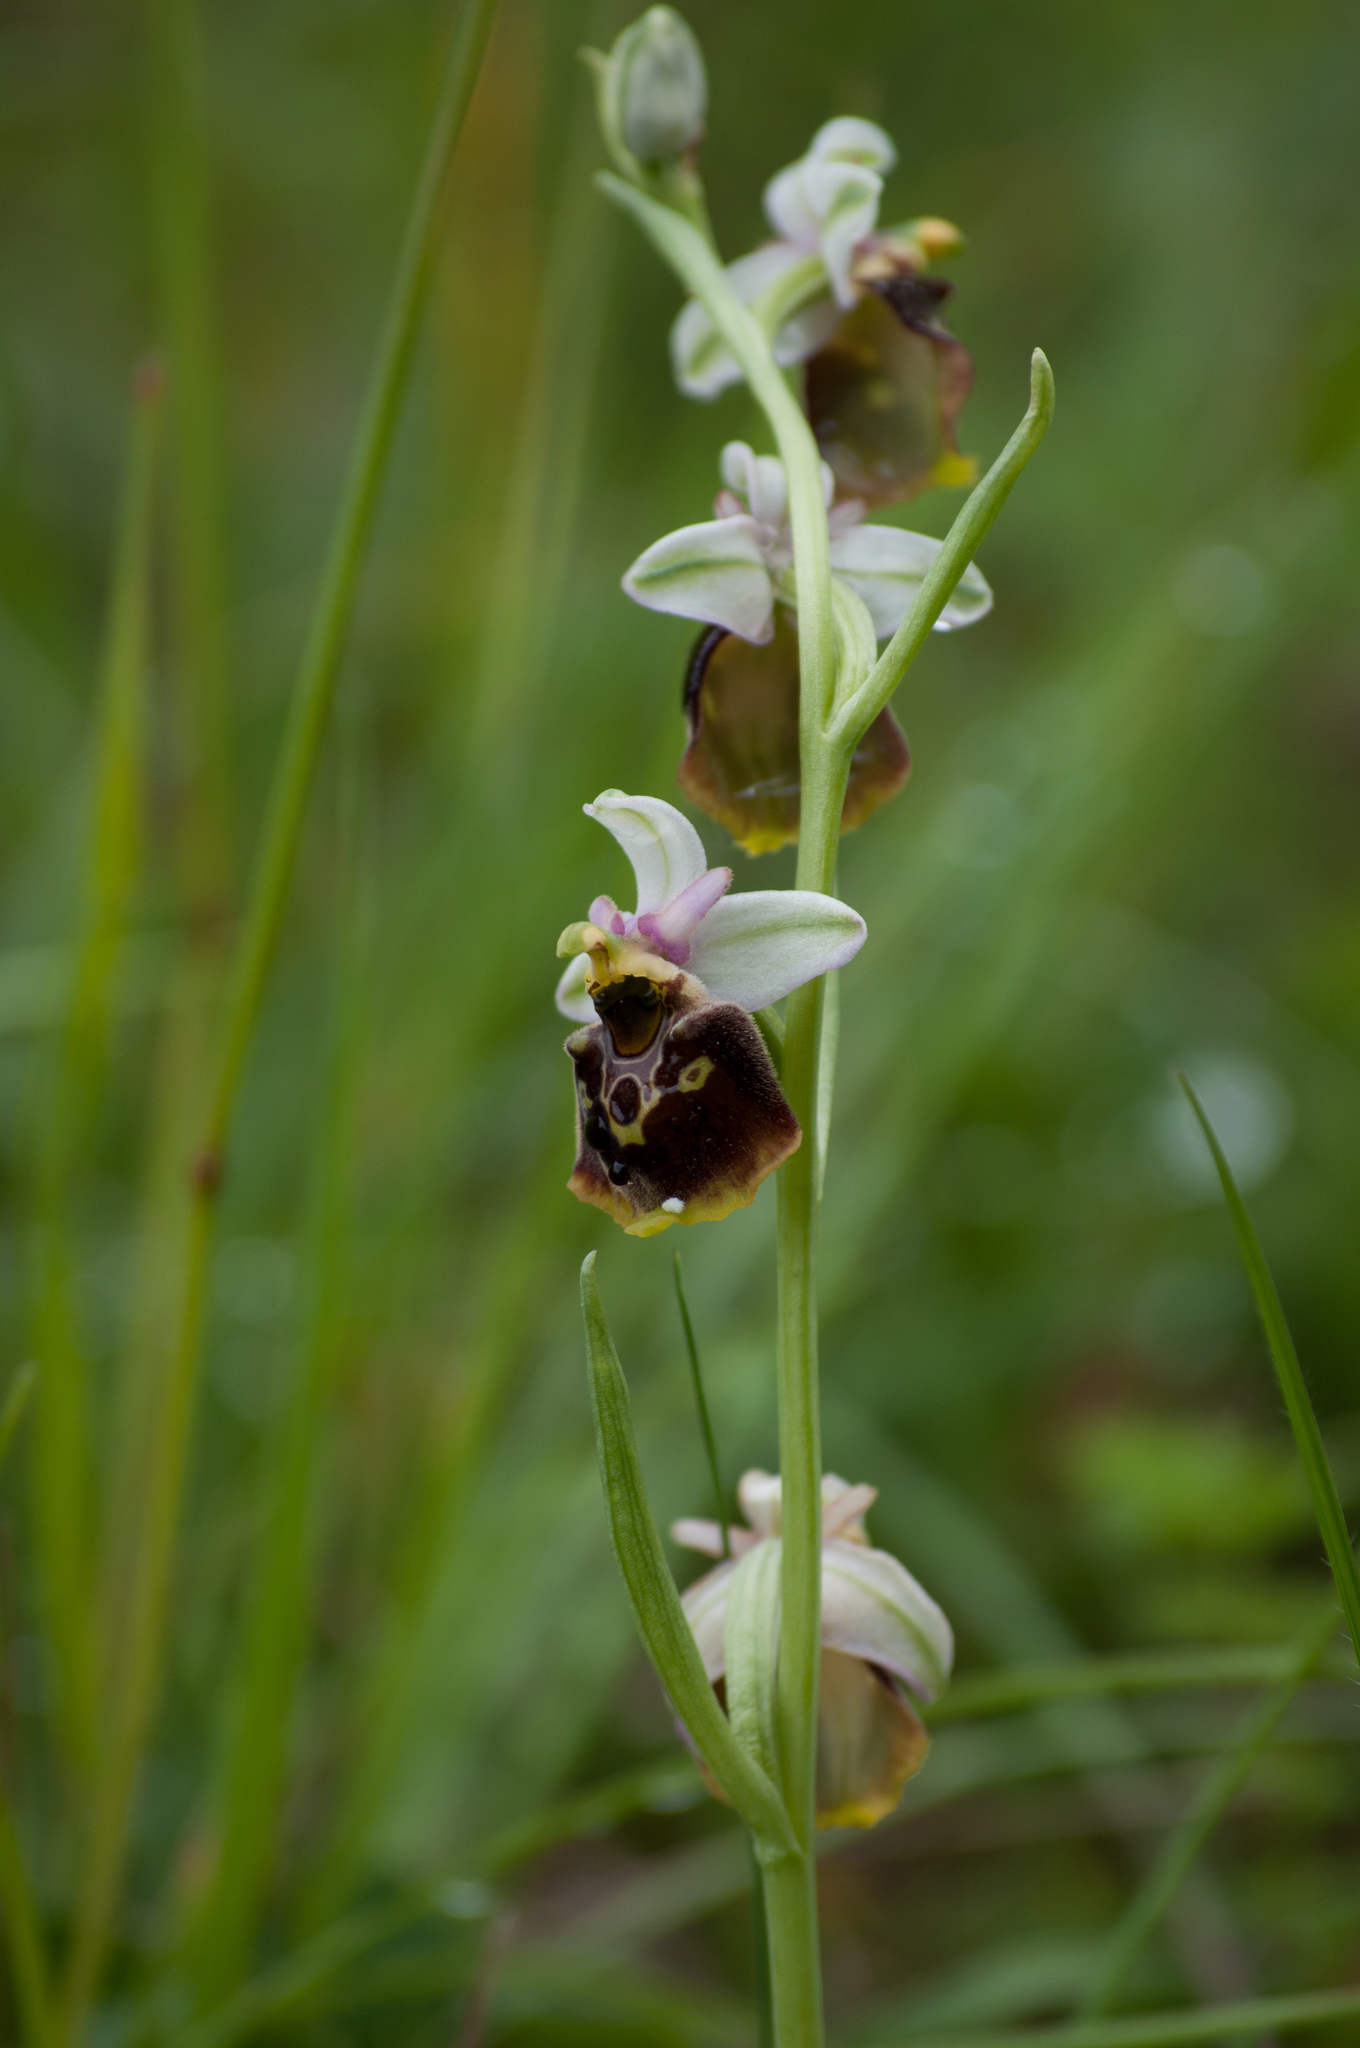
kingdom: Plantae
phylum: Tracheophyta
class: Liliopsida
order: Asparagales
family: Orchidaceae
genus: Ophrys
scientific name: Ophrys holosericea
